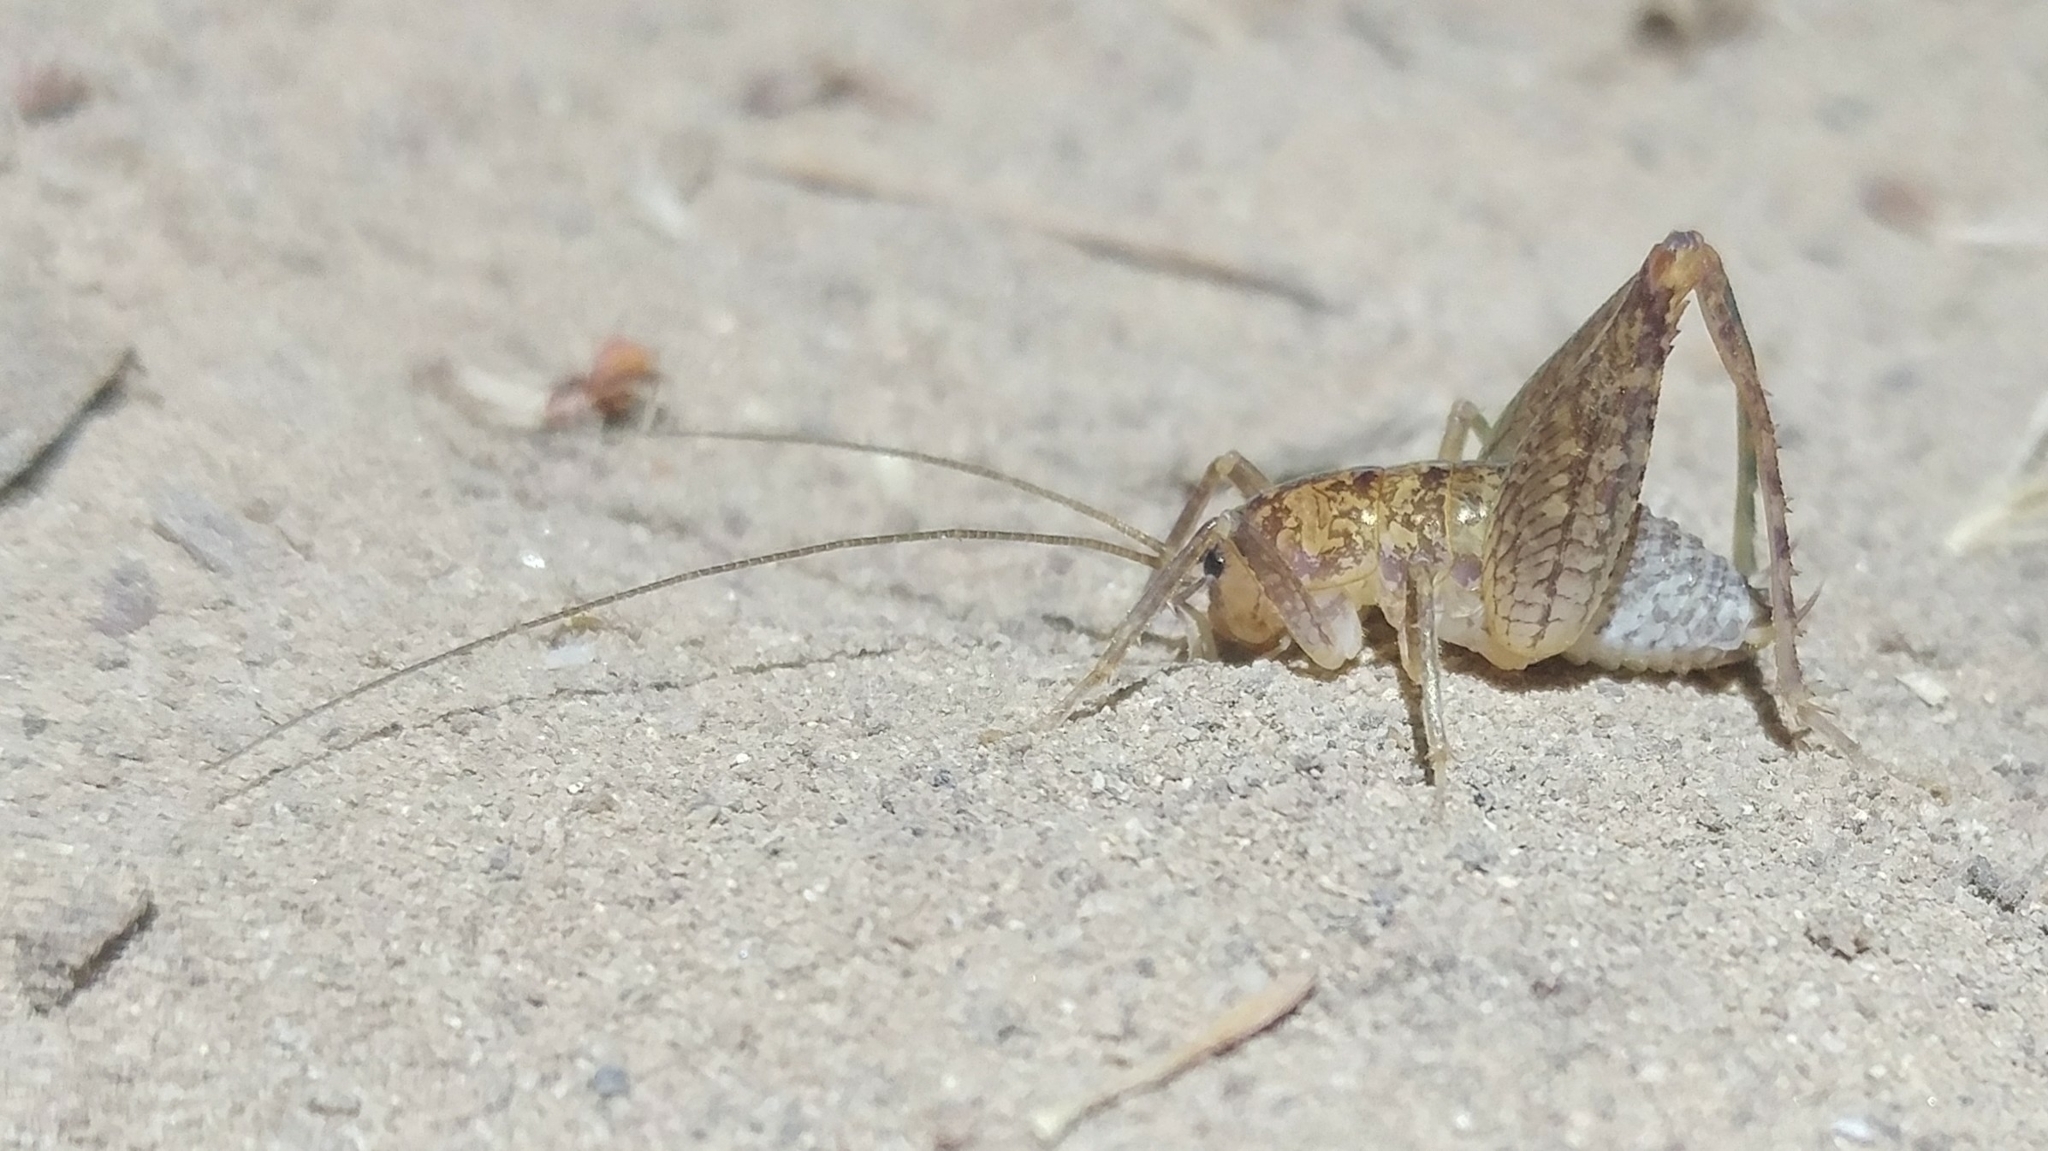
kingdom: Animalia
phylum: Arthropoda
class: Insecta
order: Orthoptera
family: Rhaphidophoridae
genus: Pristoceuthophilus
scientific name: Pristoceuthophilus
